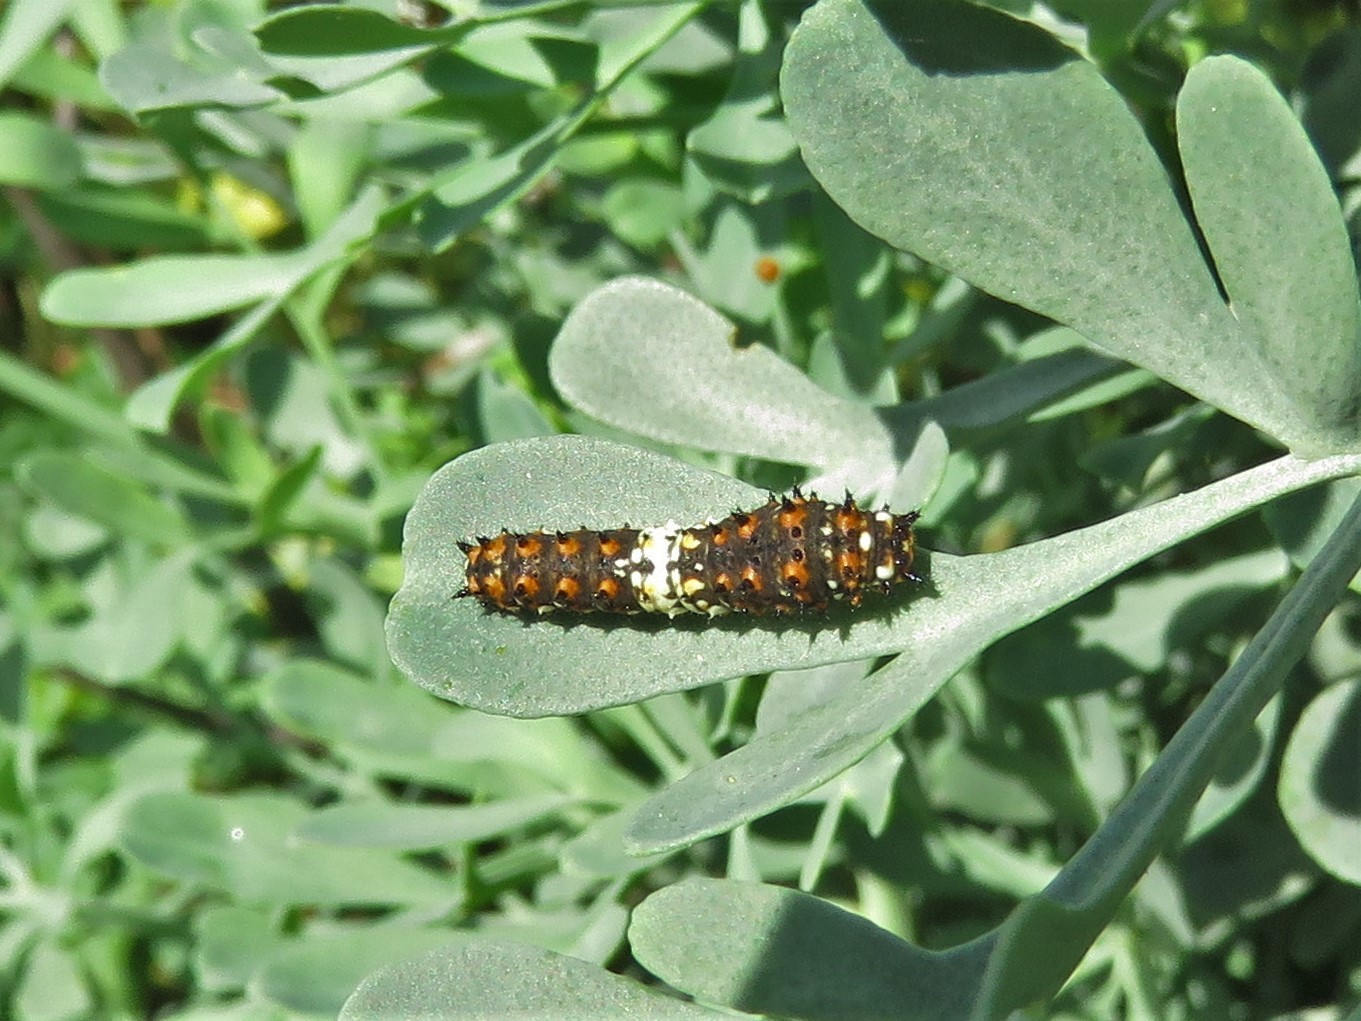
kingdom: Animalia
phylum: Arthropoda
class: Insecta
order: Lepidoptera
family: Papilionidae
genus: Papilio
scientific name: Papilio polyxenes
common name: Black swallowtail
